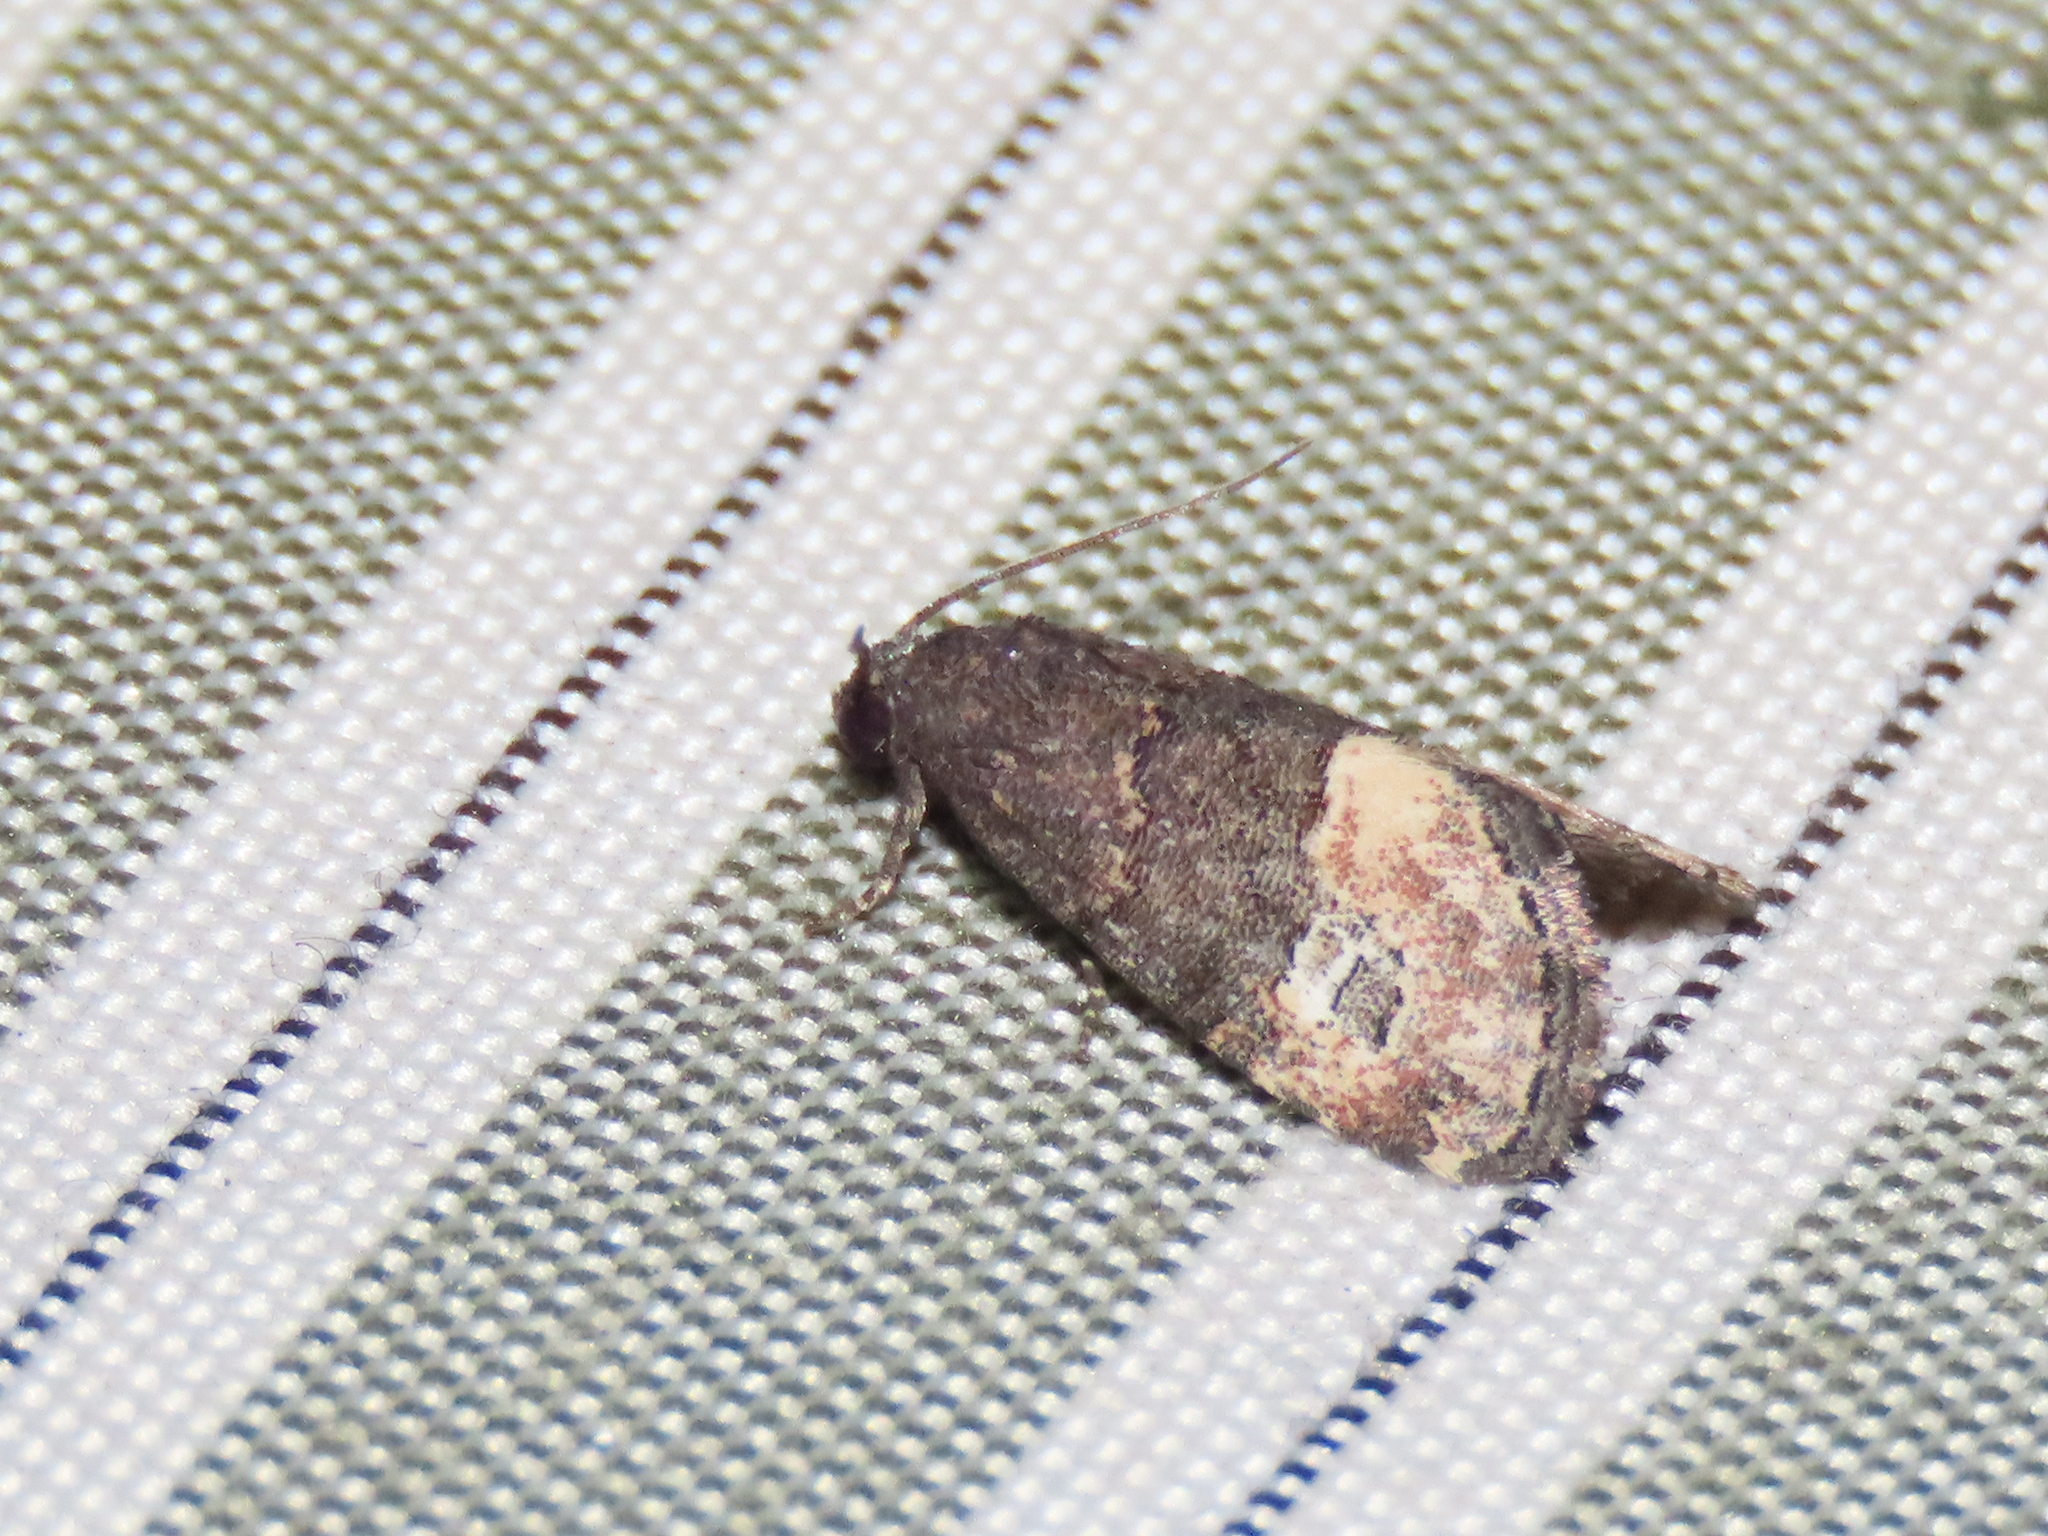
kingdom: Animalia
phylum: Arthropoda
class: Insecta
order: Lepidoptera
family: Noctuidae
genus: Ozarba
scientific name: Ozarba propera
